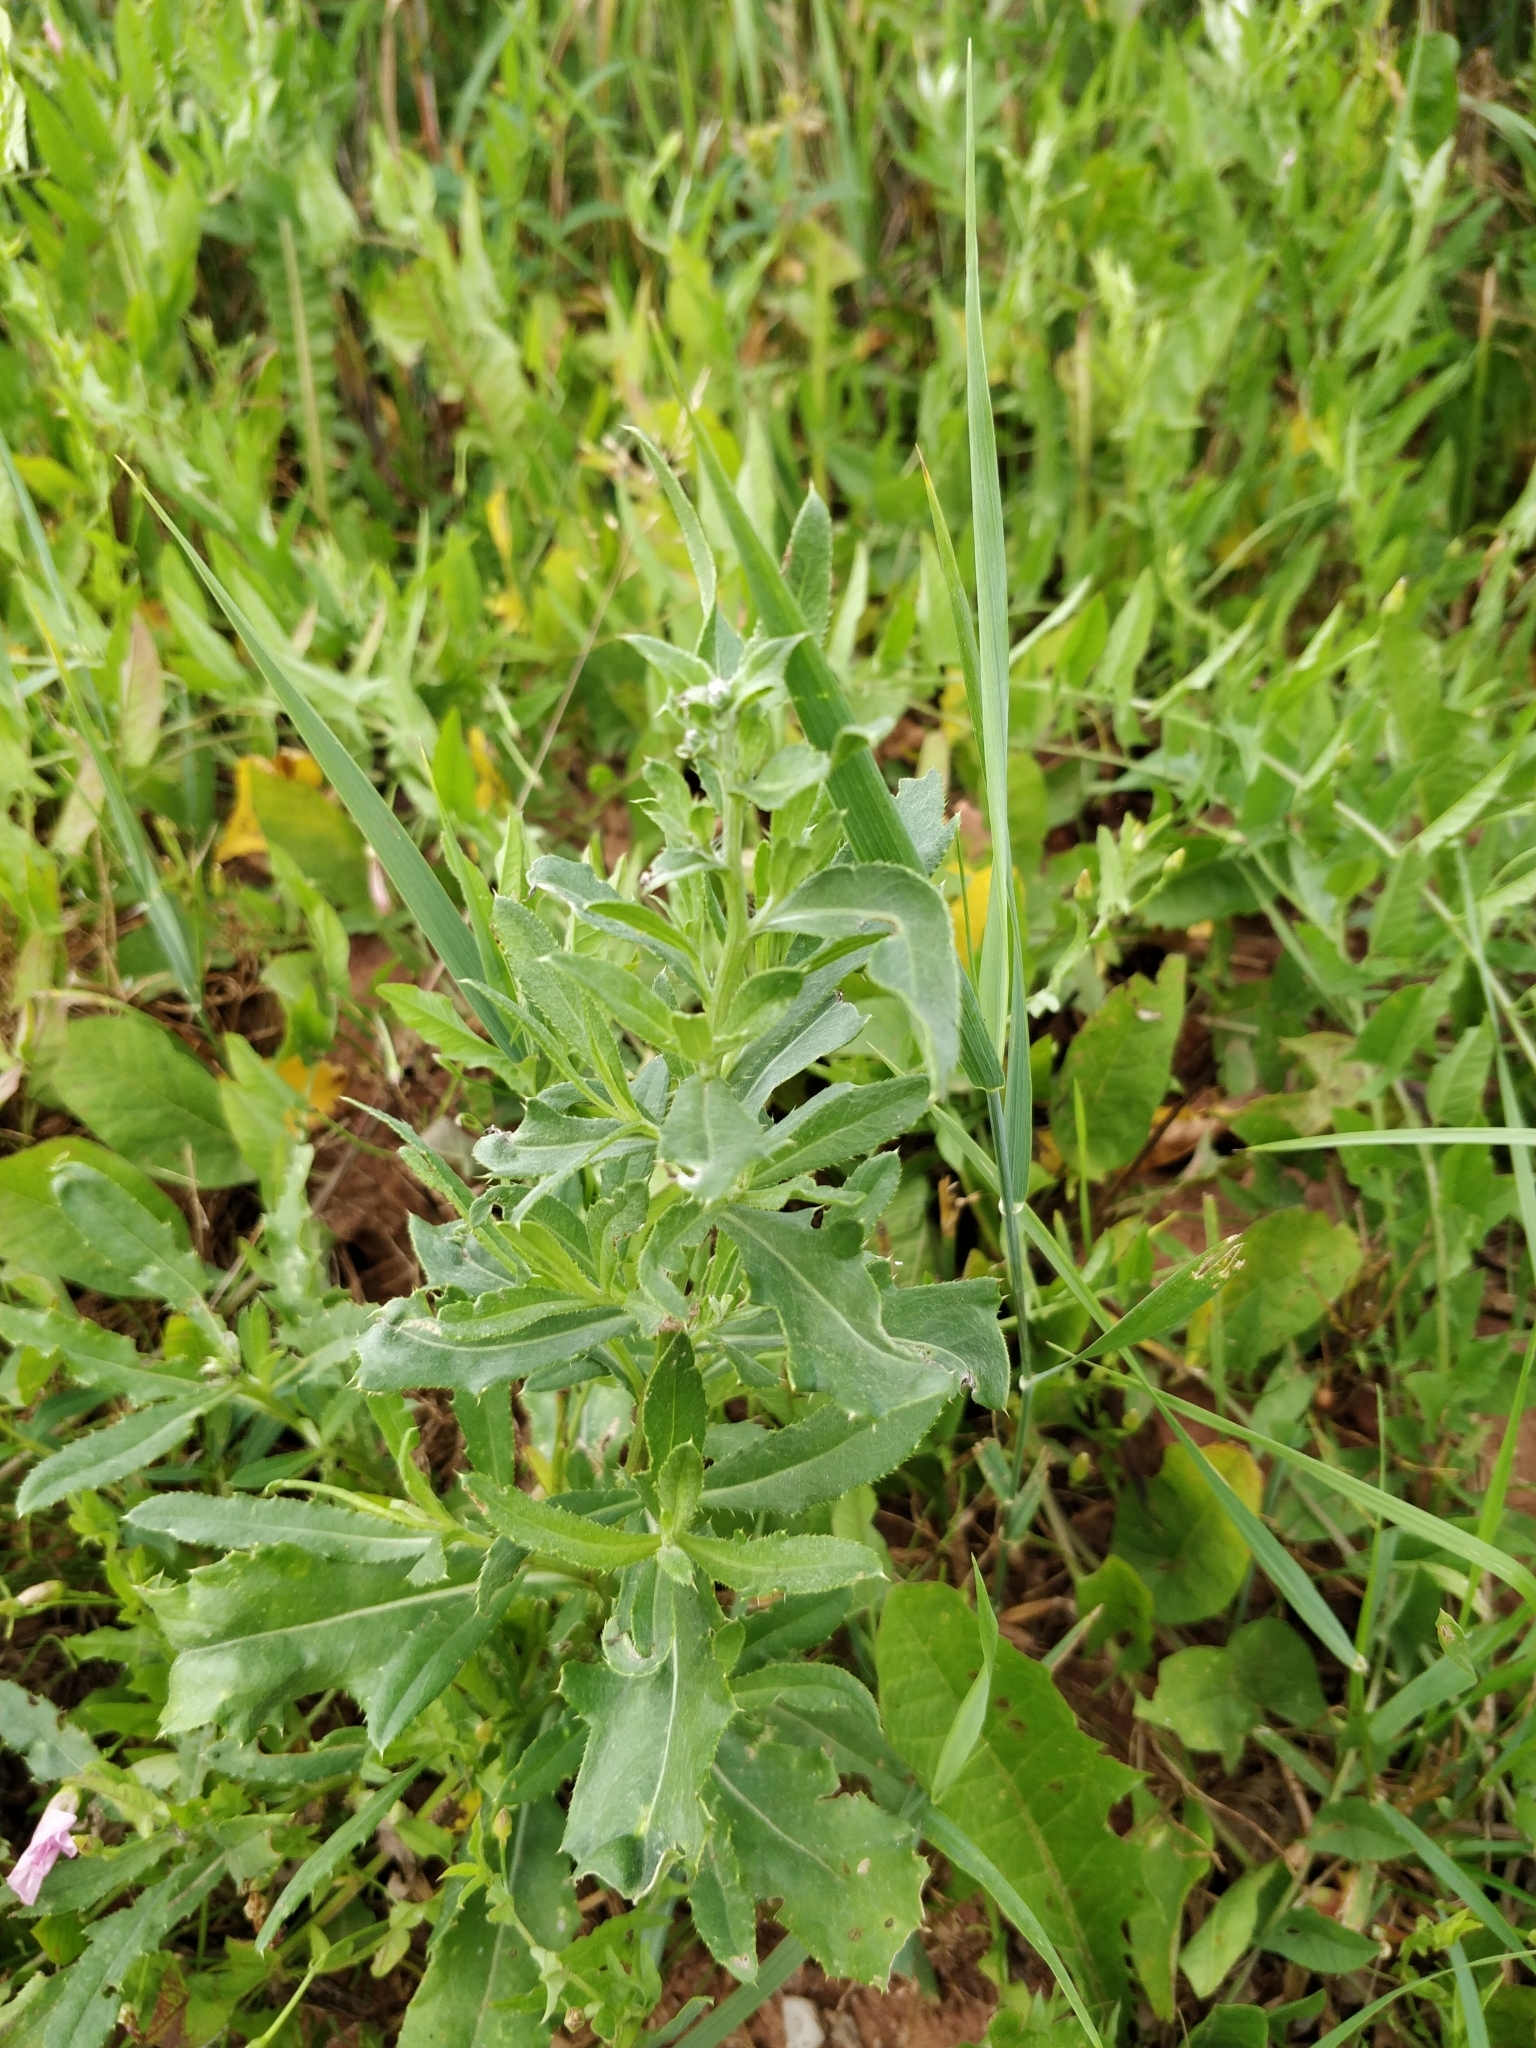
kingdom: Plantae
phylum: Tracheophyta
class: Magnoliopsida
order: Asterales
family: Asteraceae
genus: Cirsium
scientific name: Cirsium arvense
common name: Creeping thistle
